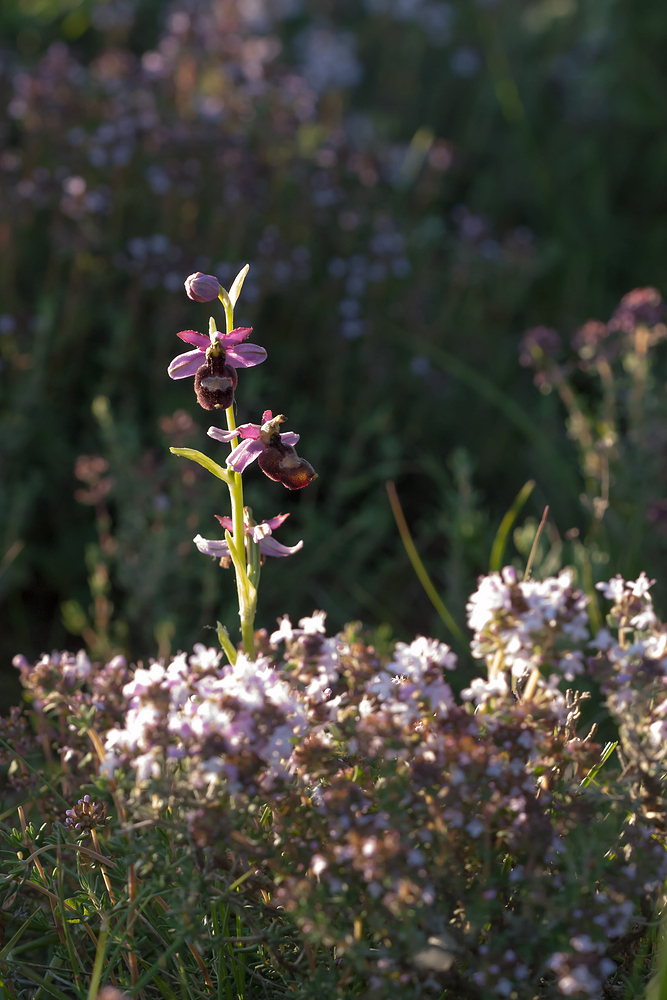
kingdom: Plantae
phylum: Tracheophyta
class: Liliopsida
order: Asparagales
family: Orchidaceae
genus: Ophrys
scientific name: Ophrys flavicans
